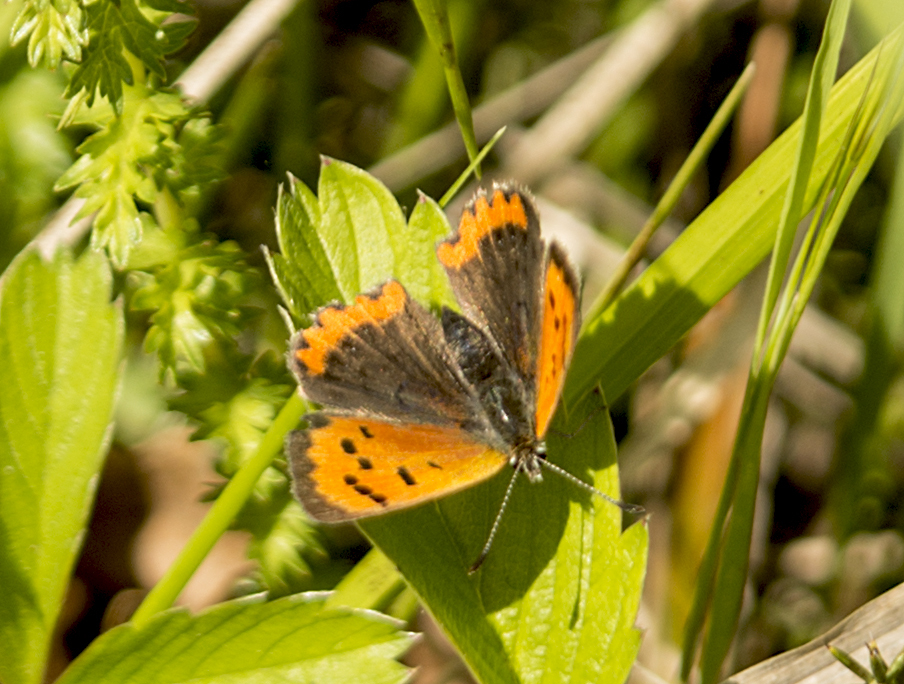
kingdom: Animalia
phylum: Arthropoda
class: Insecta
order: Lepidoptera
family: Lycaenidae
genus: Lycaena
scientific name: Lycaena phlaeas
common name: Small copper
